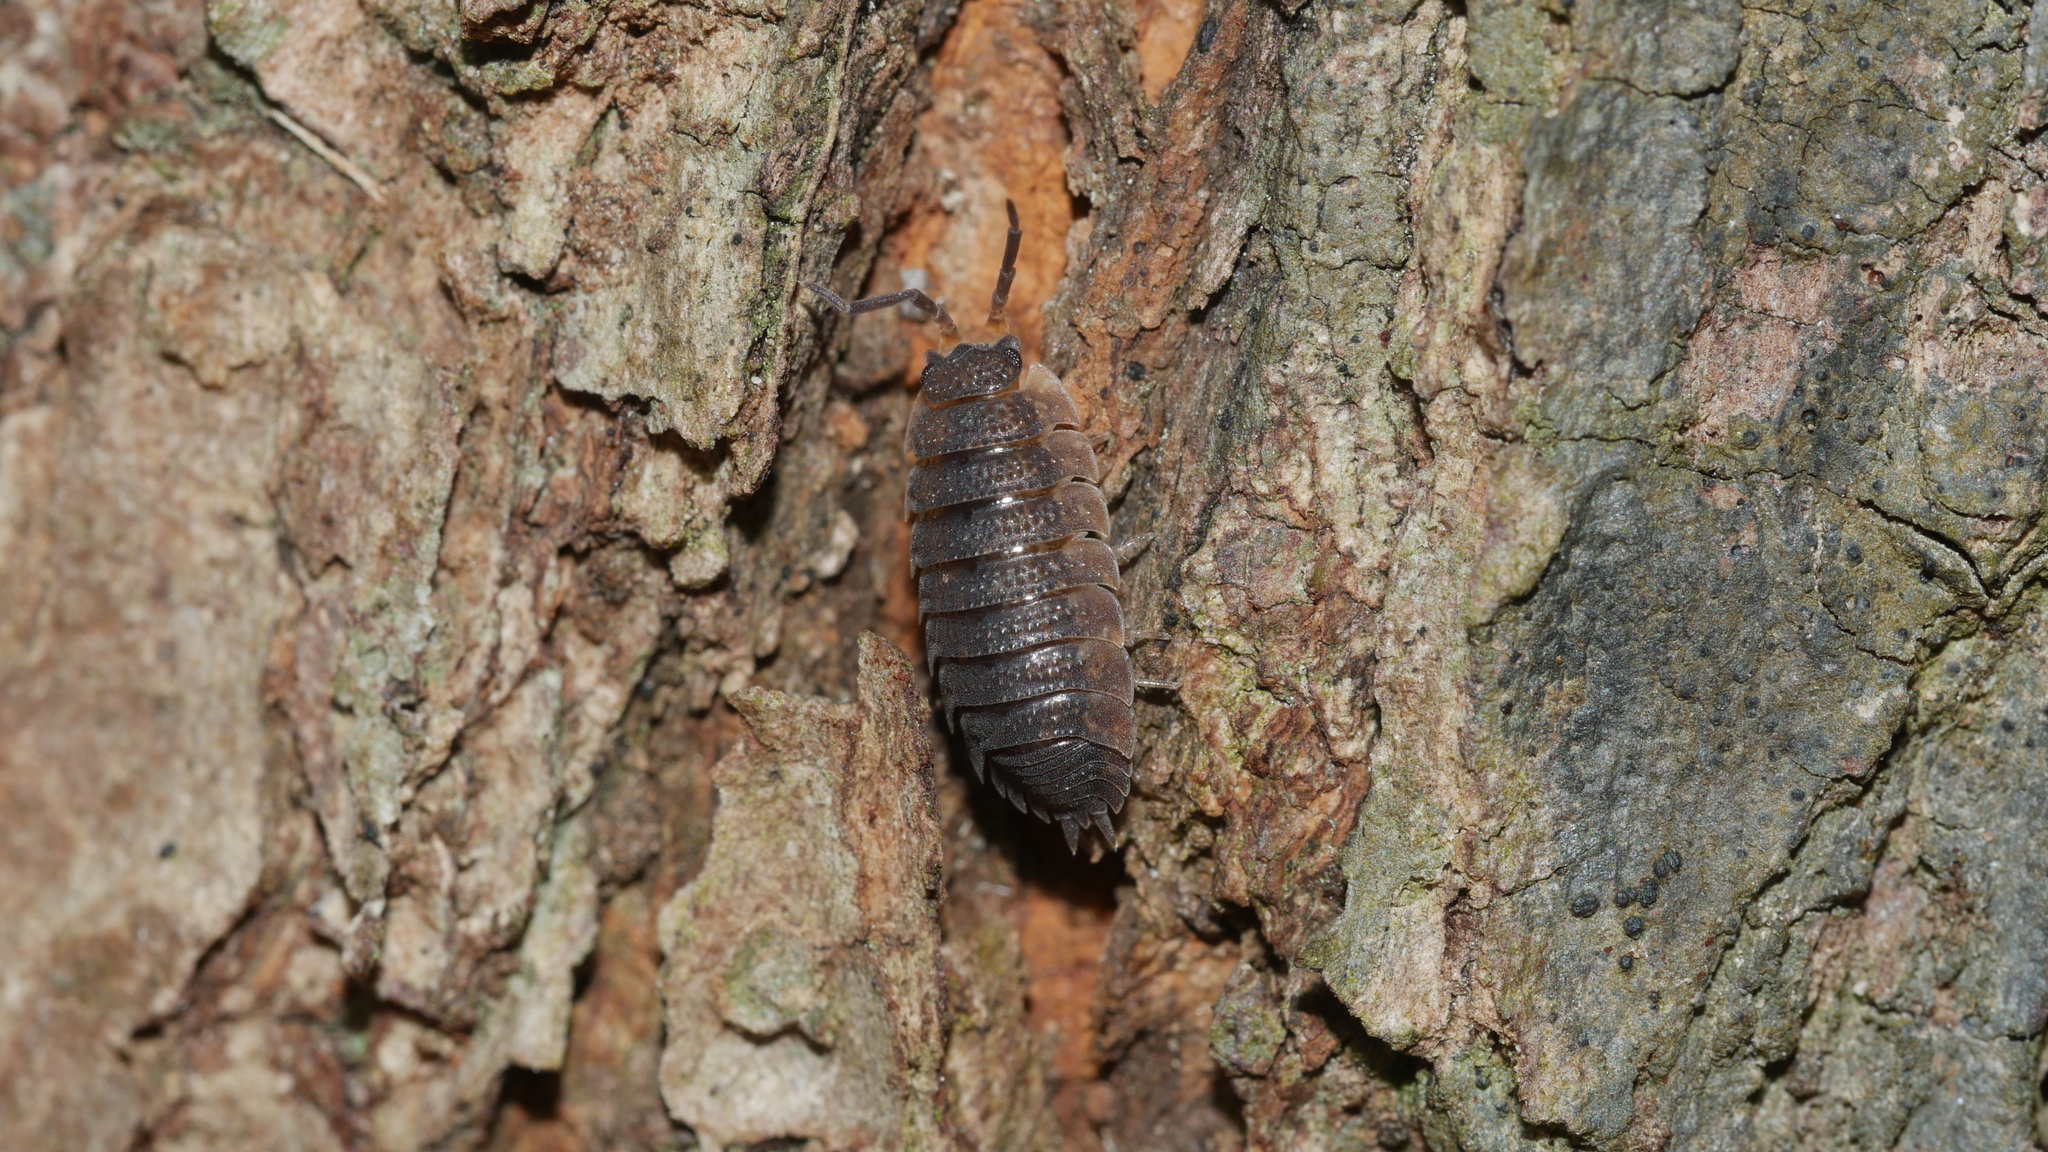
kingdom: Animalia
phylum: Arthropoda
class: Malacostraca
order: Isopoda
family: Porcellionidae
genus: Porcellio
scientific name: Porcellio scaber
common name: Common rough woodlouse
